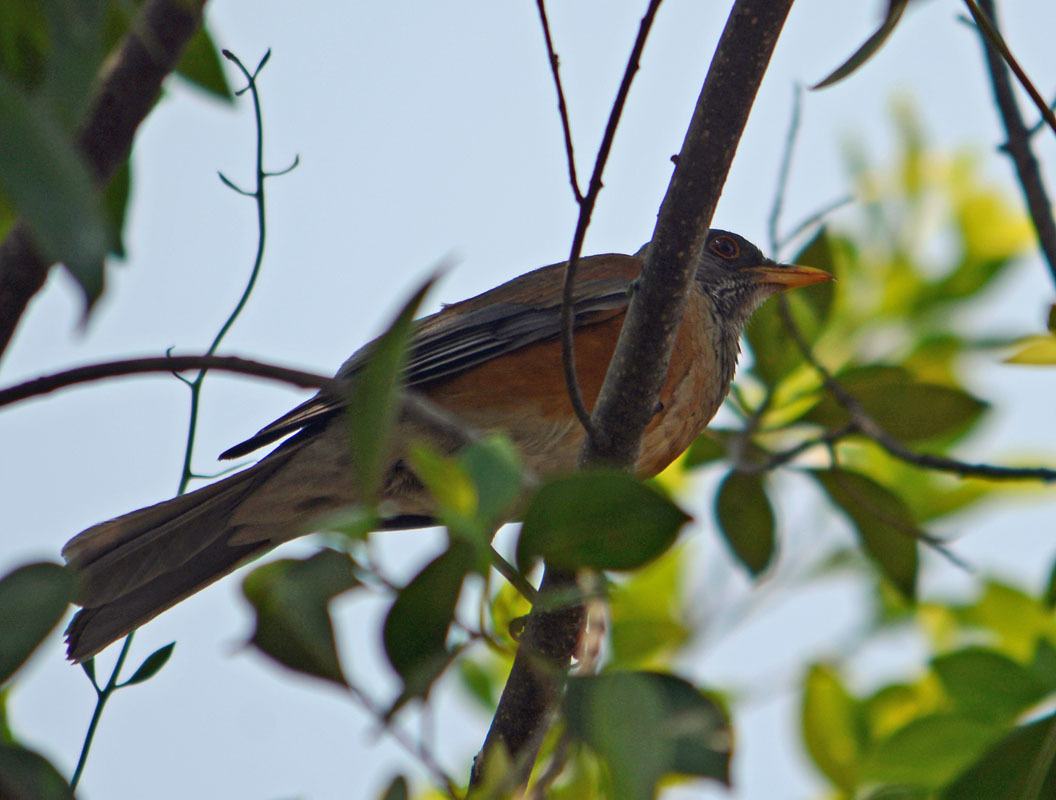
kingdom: Animalia
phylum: Chordata
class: Aves
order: Passeriformes
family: Turdidae
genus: Turdus
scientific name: Turdus rufopalliatus
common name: Rufous-backed robin
